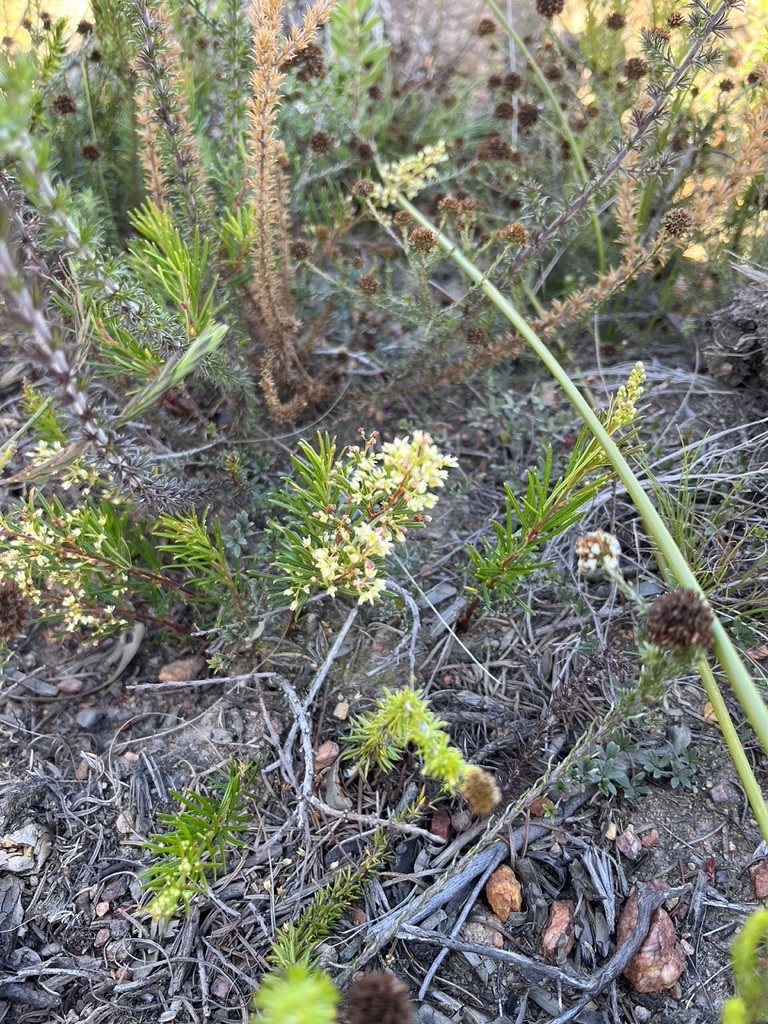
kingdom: Plantae
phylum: Tracheophyta
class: Magnoliopsida
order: Sapindales
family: Anacardiaceae
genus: Searsia
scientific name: Searsia rosmarinifolia
